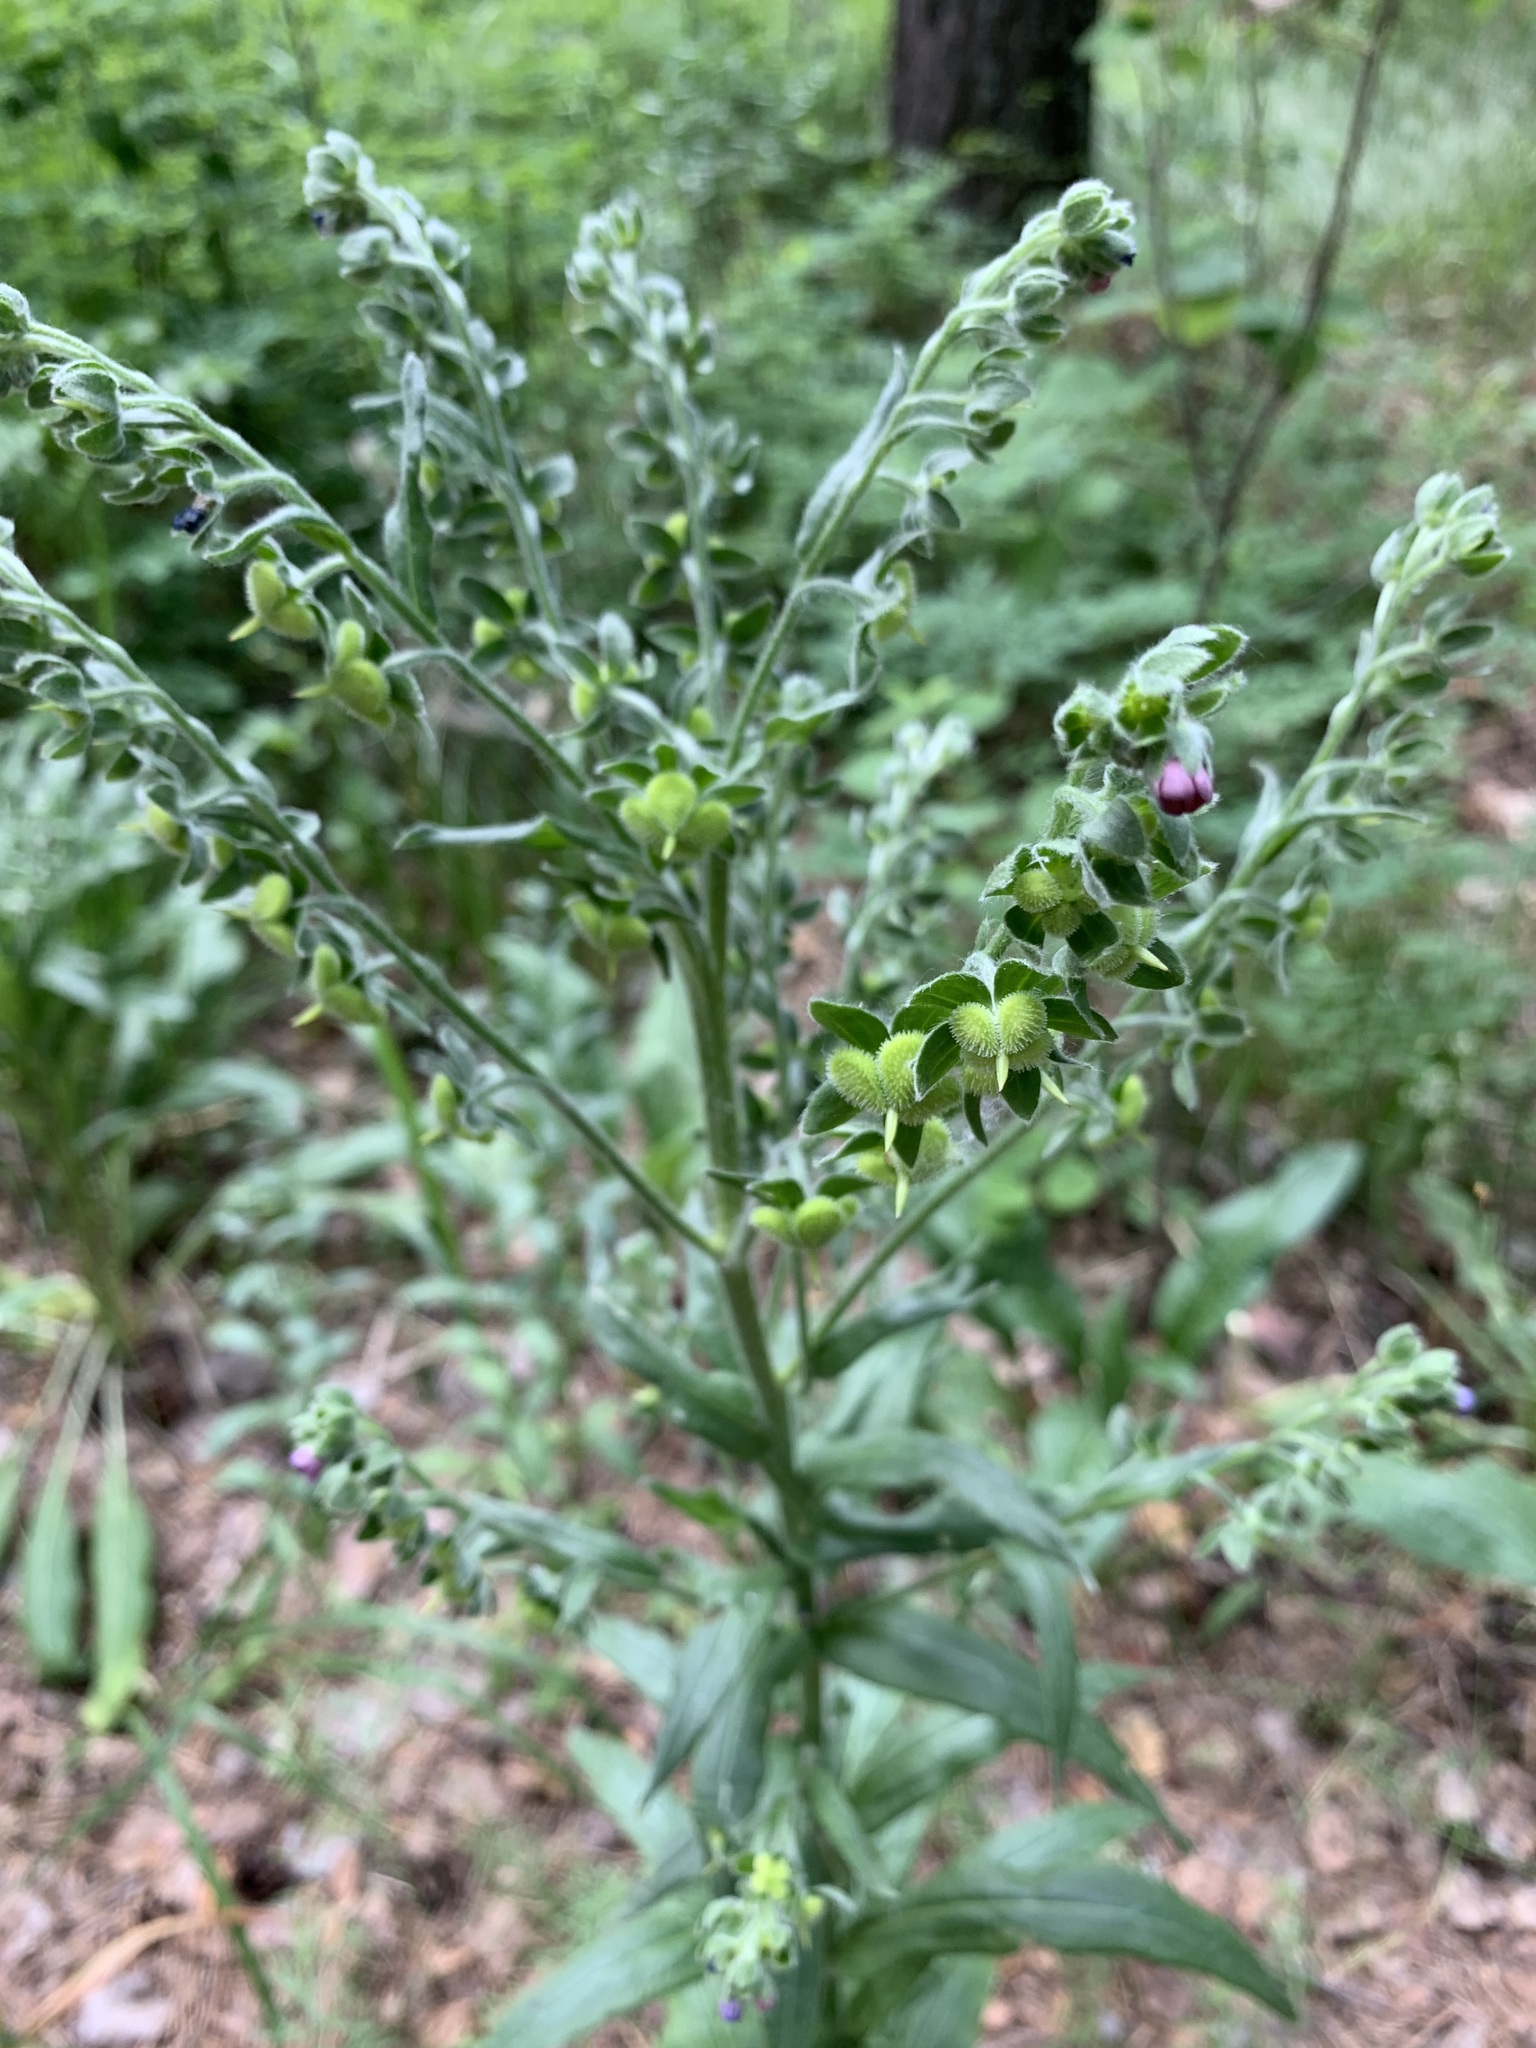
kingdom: Plantae
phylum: Tracheophyta
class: Magnoliopsida
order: Boraginales
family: Boraginaceae
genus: Cynoglossum
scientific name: Cynoglossum officinale
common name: Hound's-tongue
